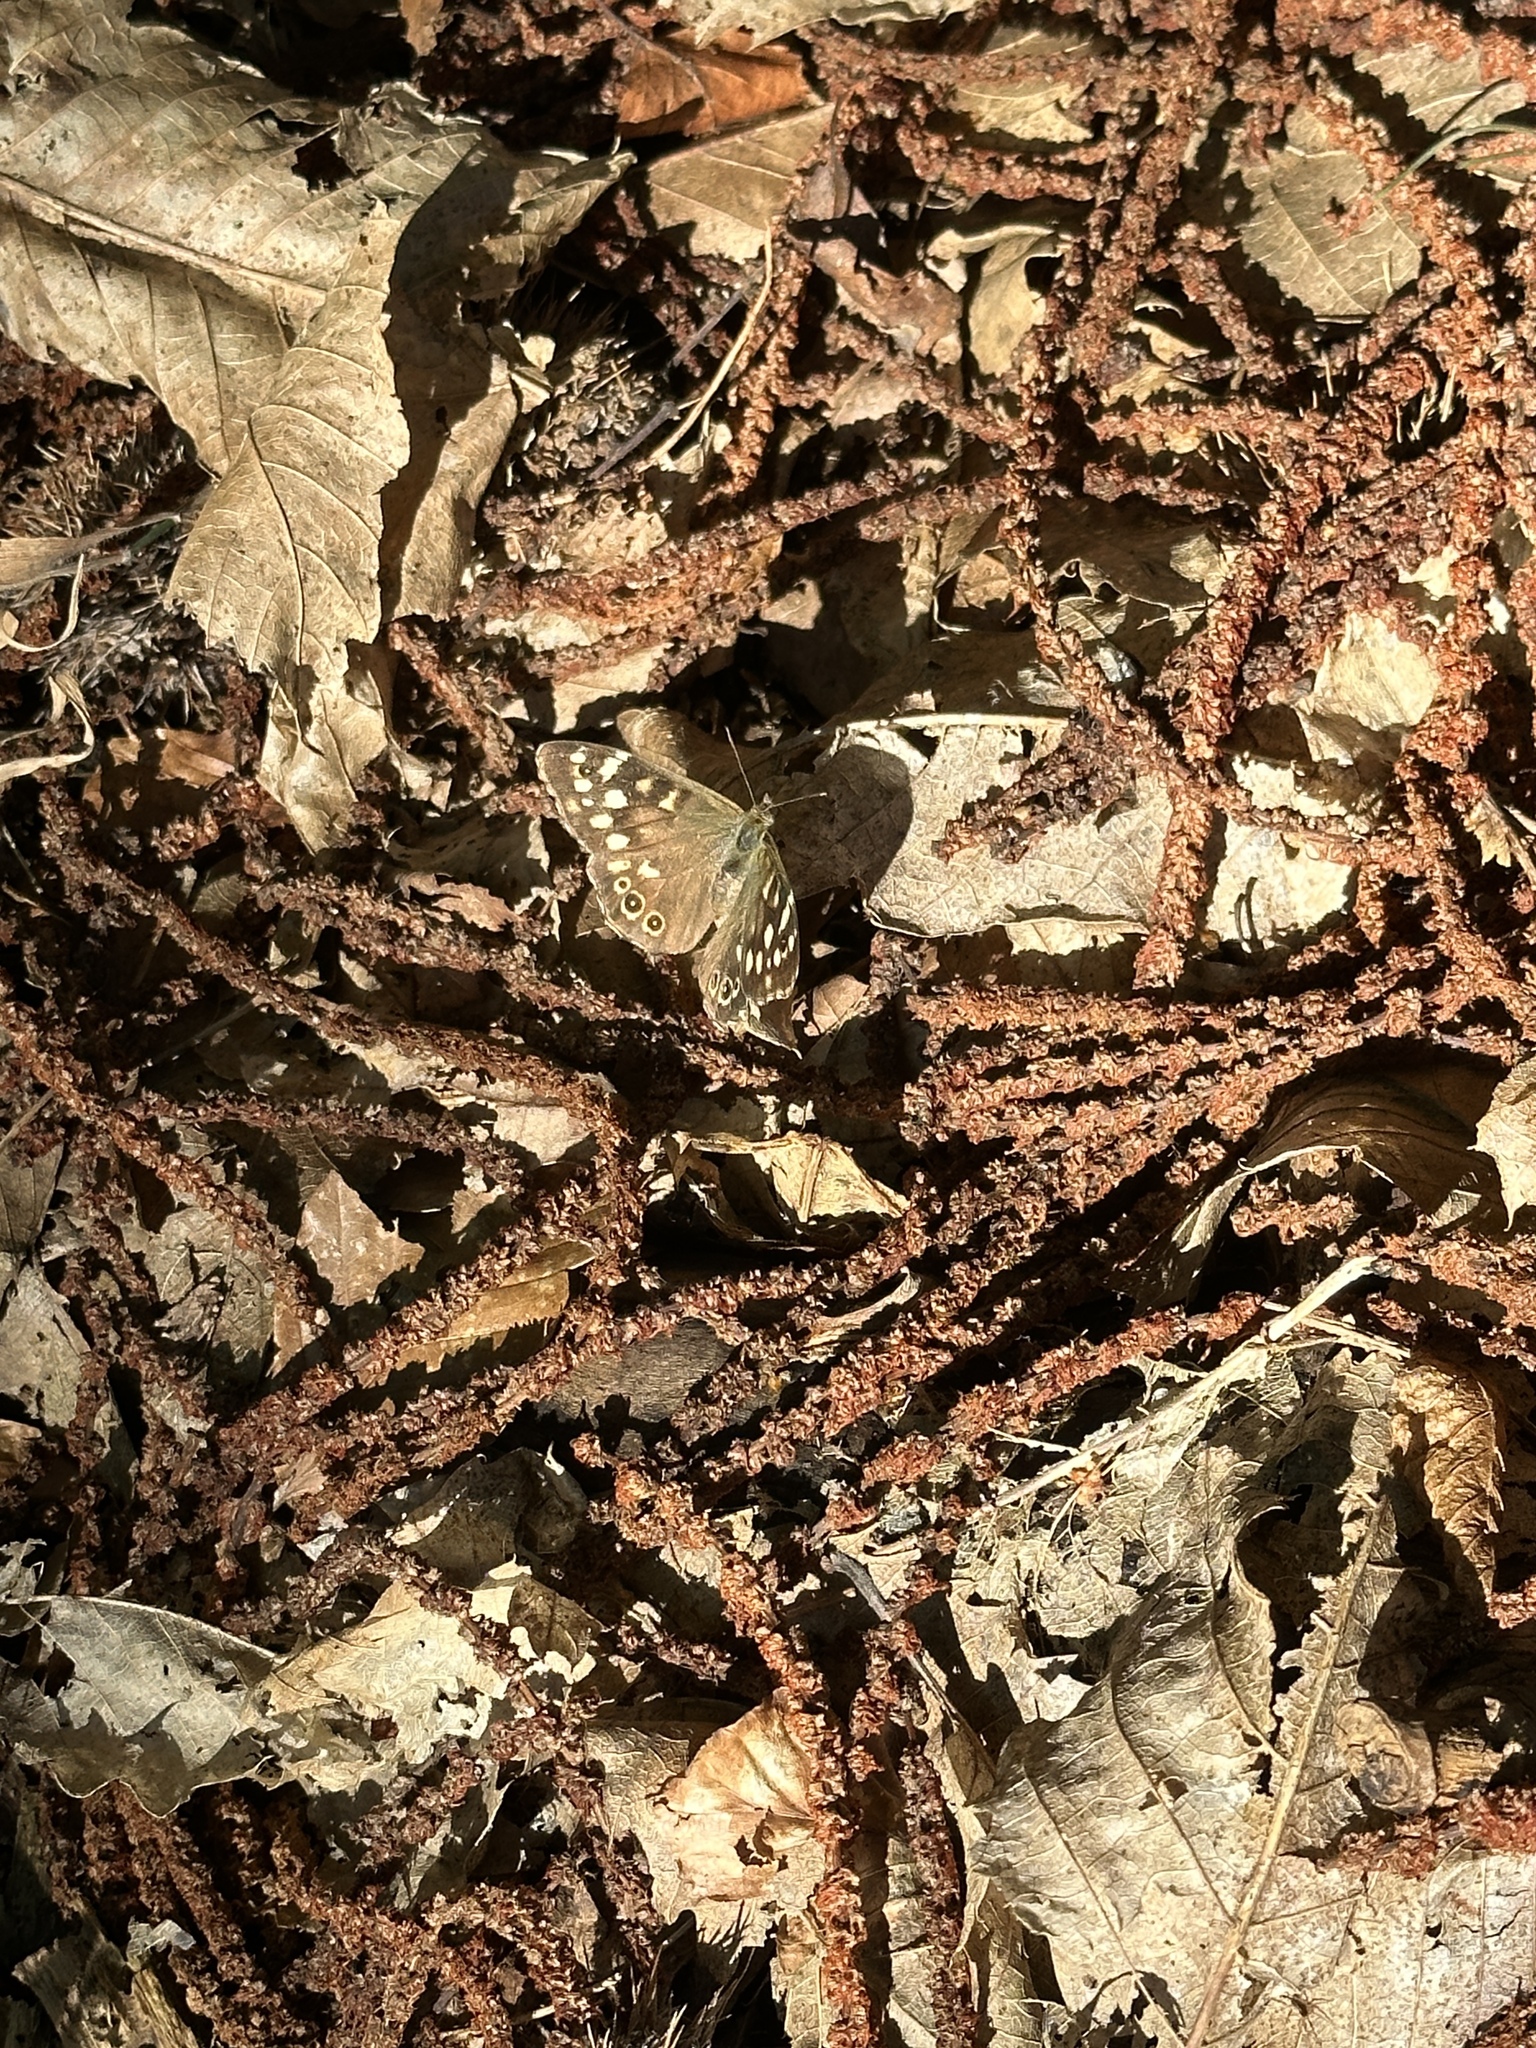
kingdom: Animalia
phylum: Arthropoda
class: Insecta
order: Lepidoptera
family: Nymphalidae
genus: Pararge
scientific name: Pararge aegeria
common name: Speckled wood
